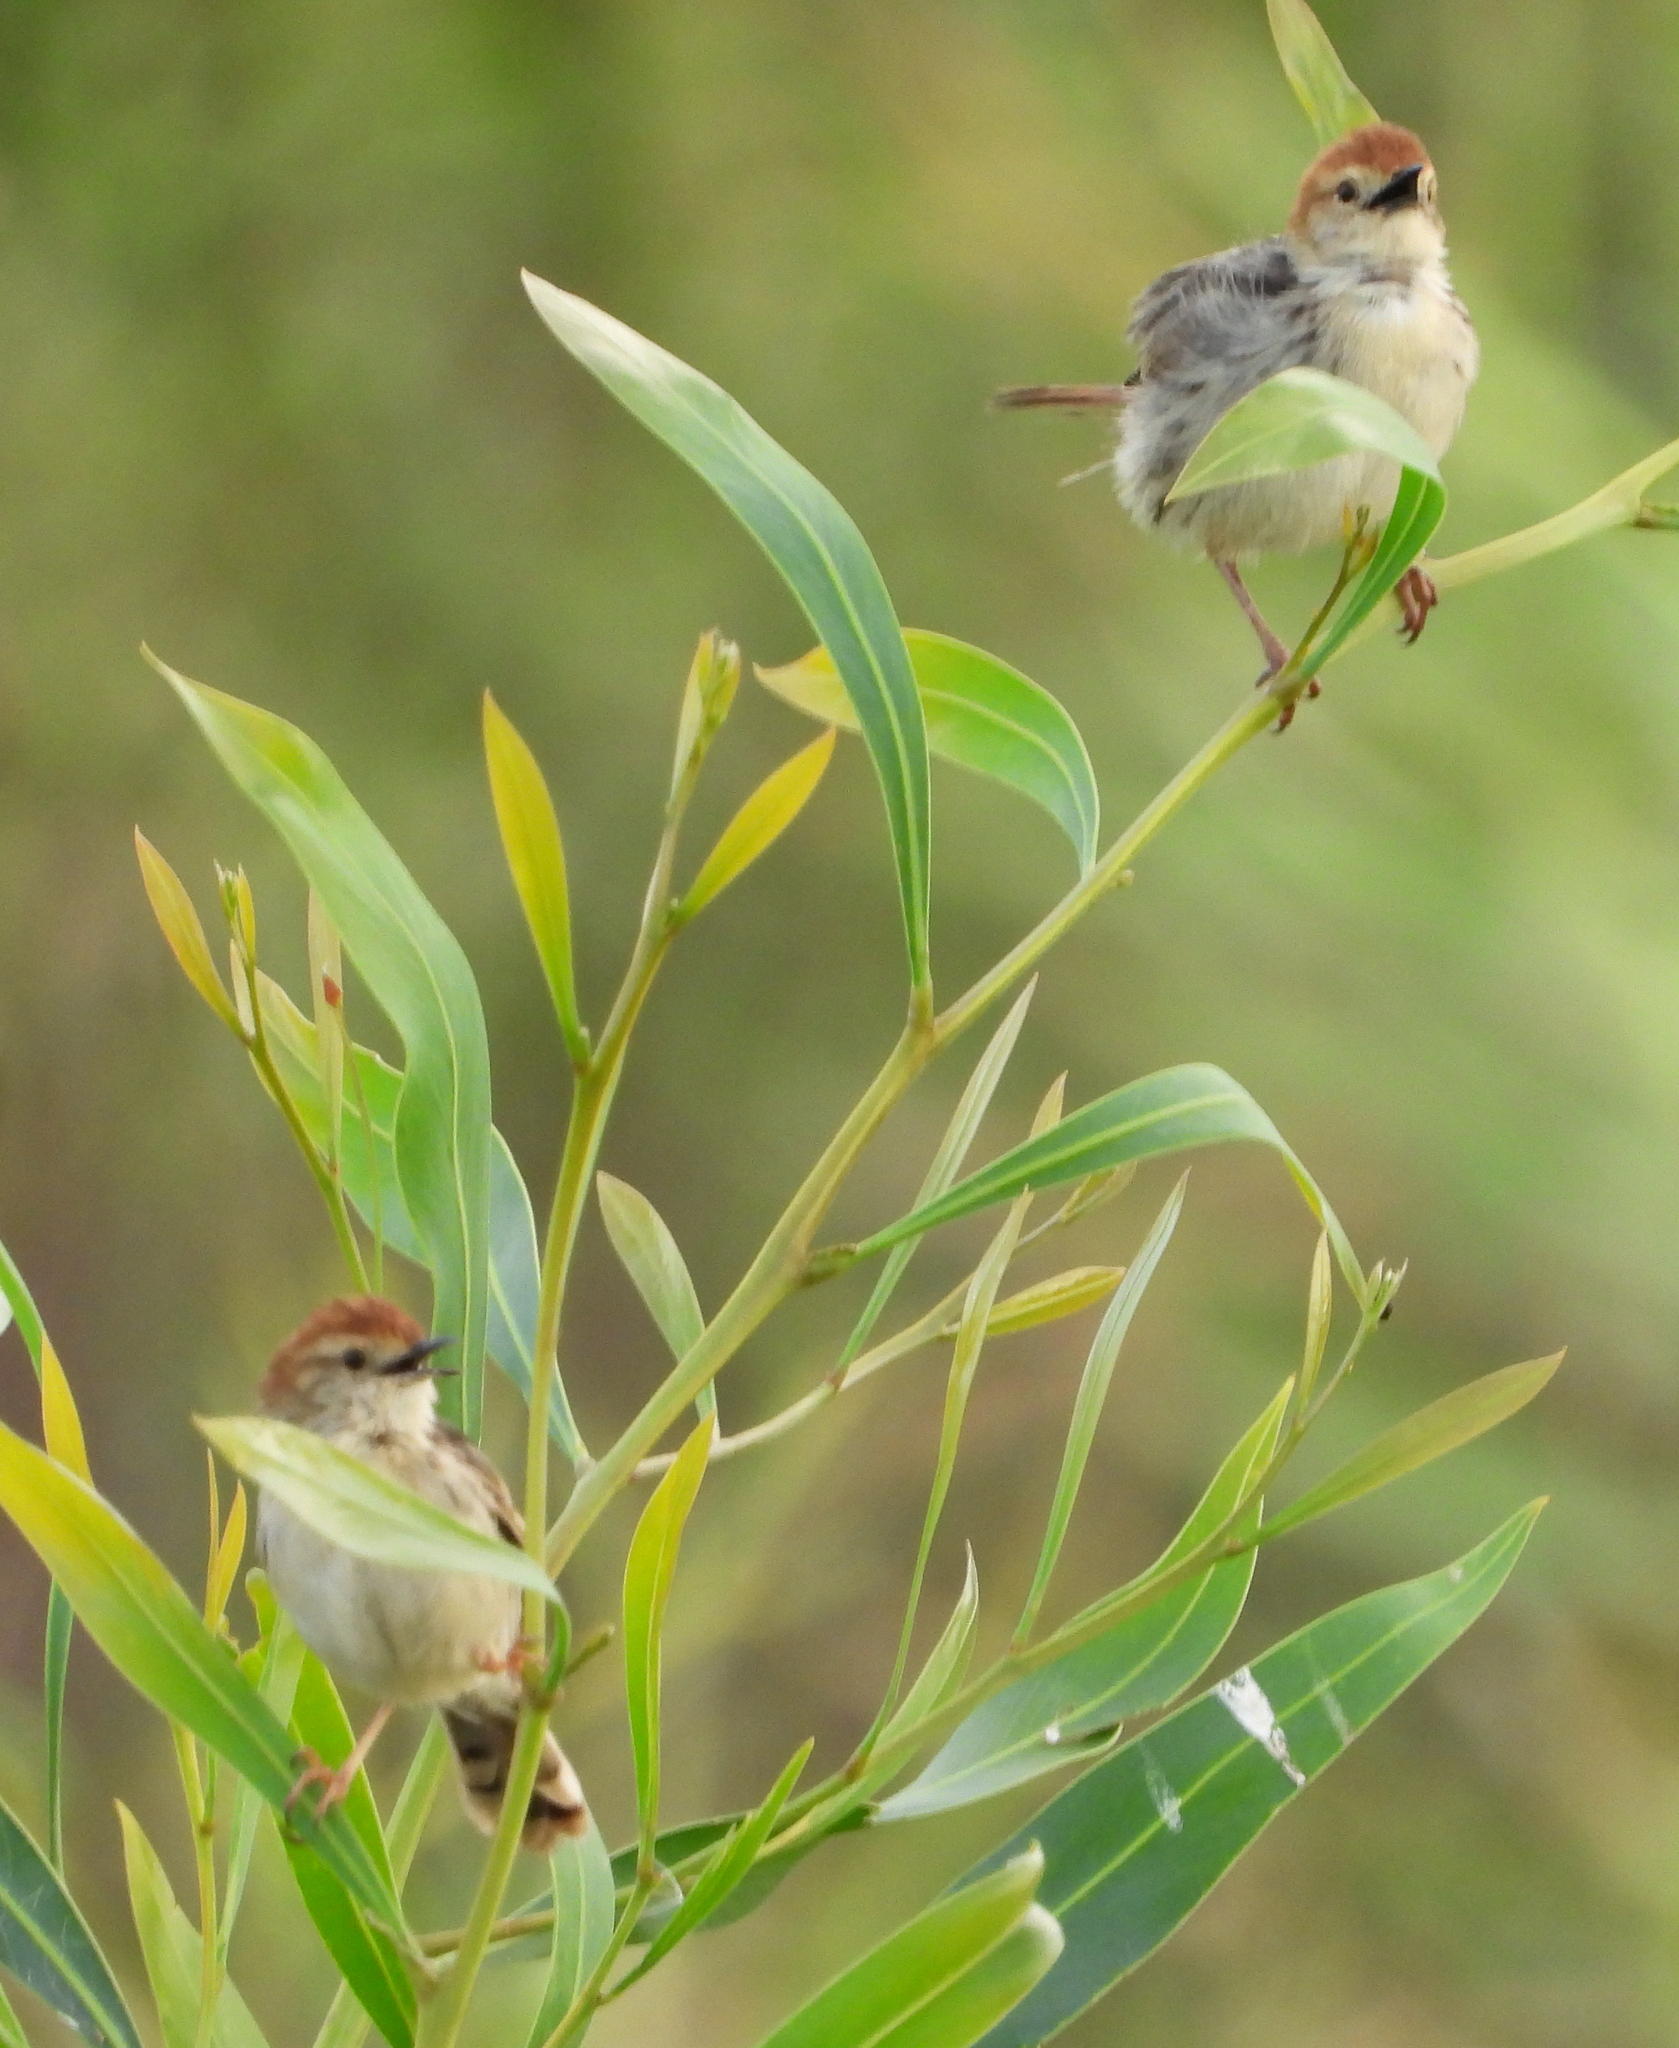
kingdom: Animalia
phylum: Chordata
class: Aves
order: Passeriformes
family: Cisticolidae
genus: Cisticola
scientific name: Cisticola tinniens
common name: Levaillant's cisticola
